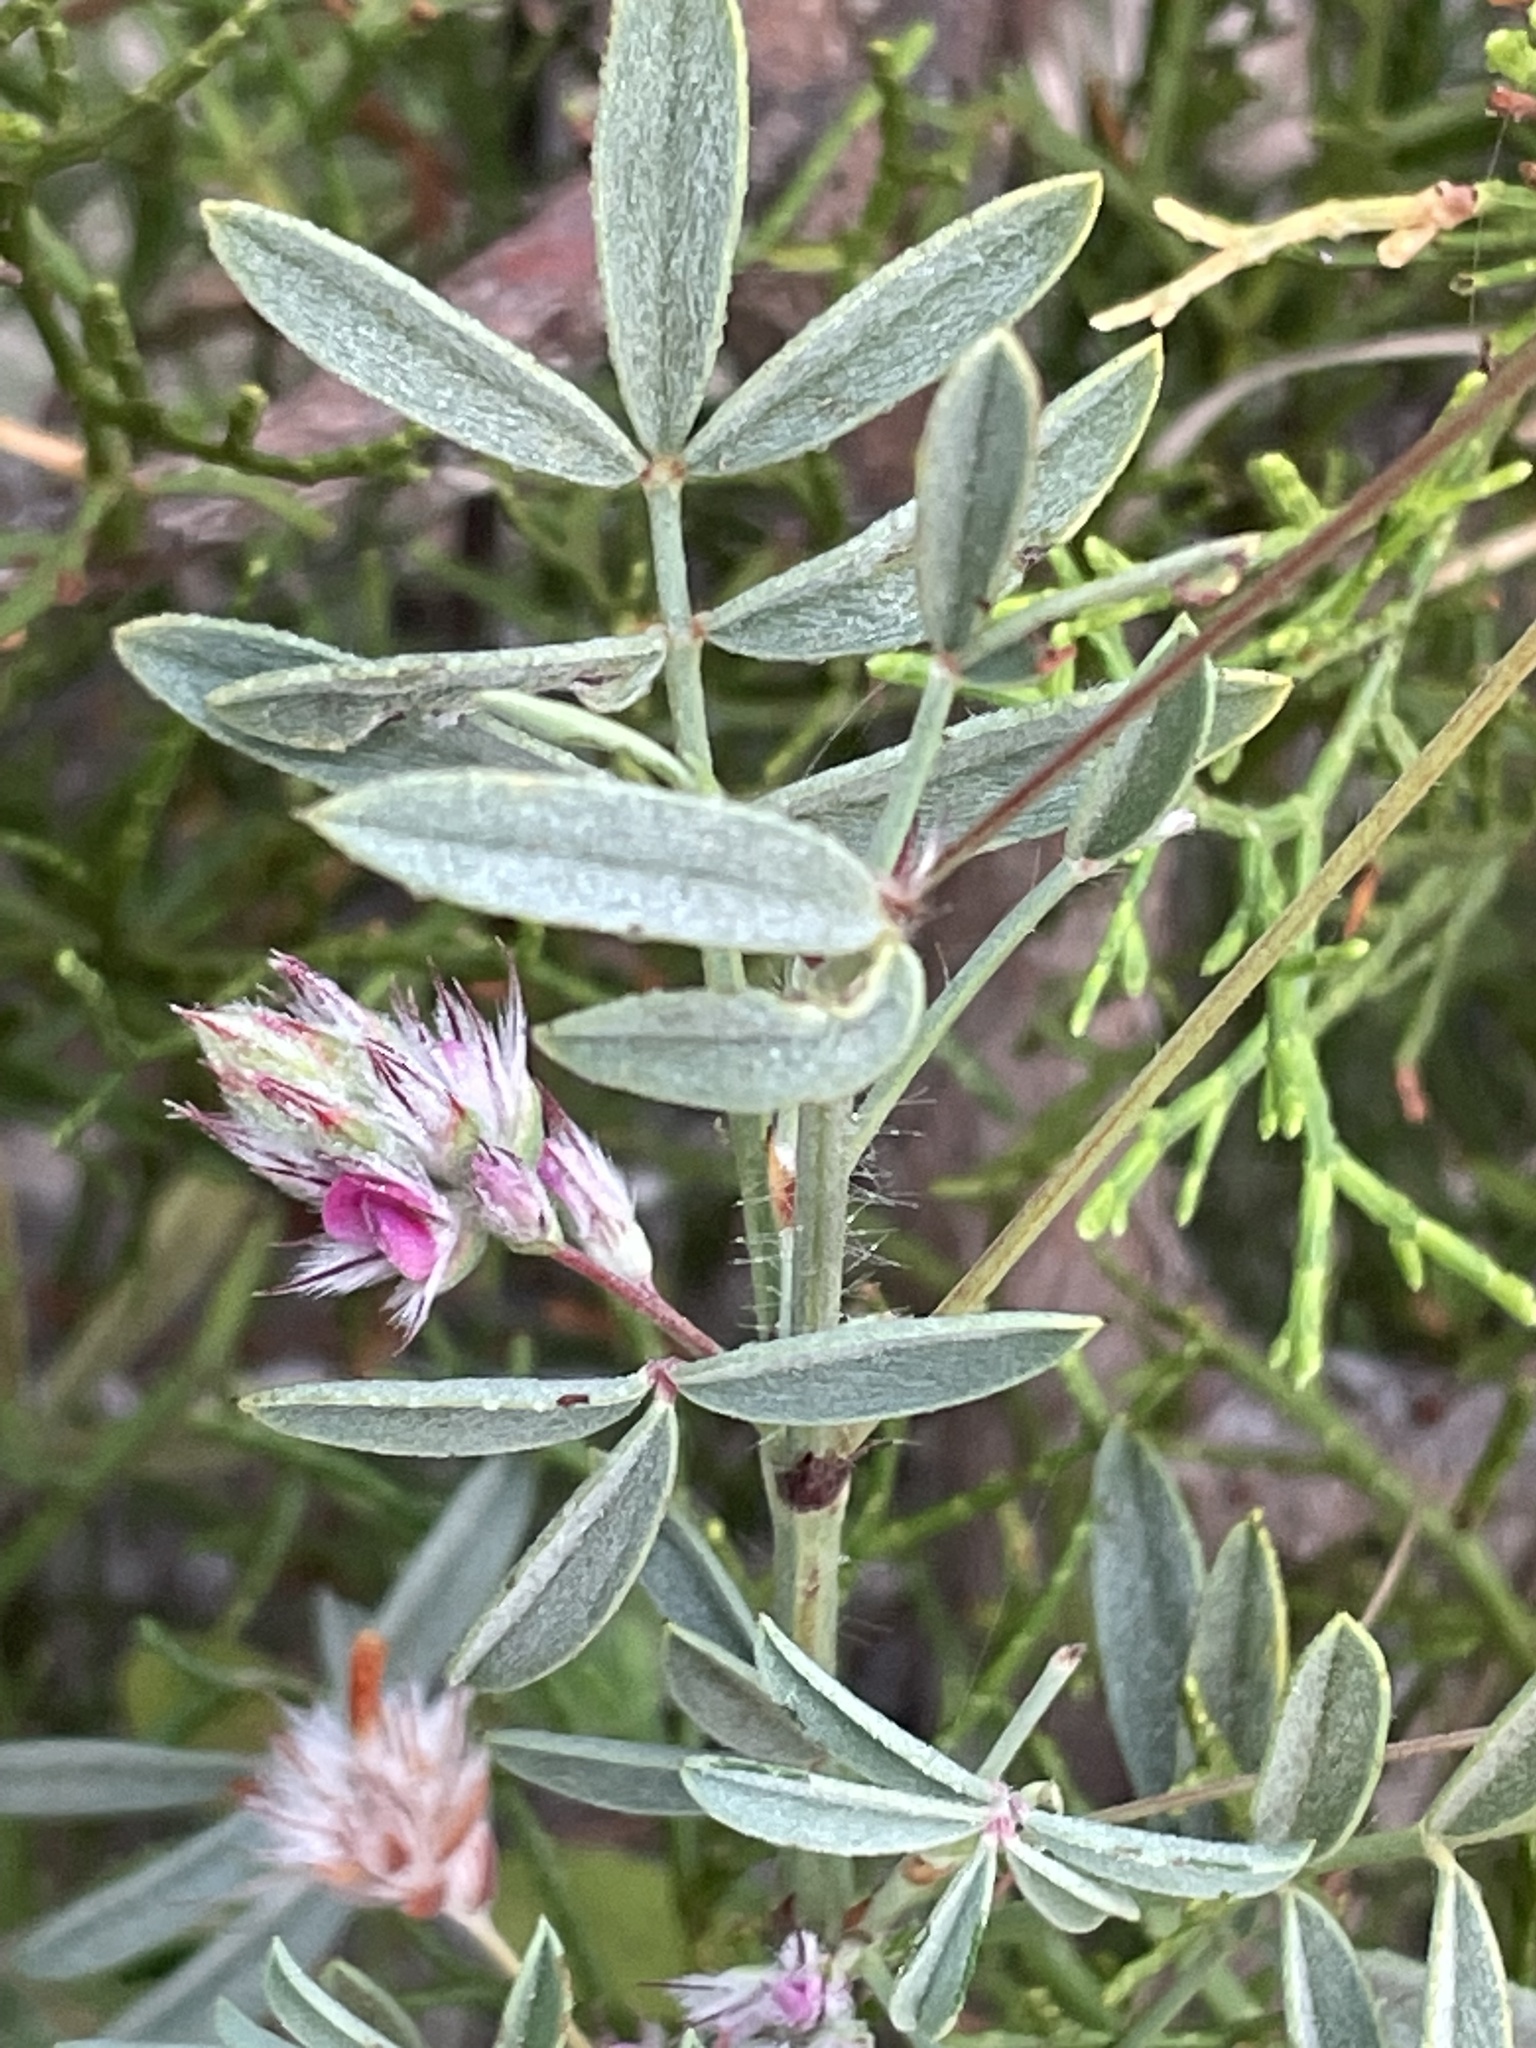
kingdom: Plantae
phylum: Tracheophyta
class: Magnoliopsida
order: Fabales
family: Fabaceae
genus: Ebenus
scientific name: Ebenus pinnata
